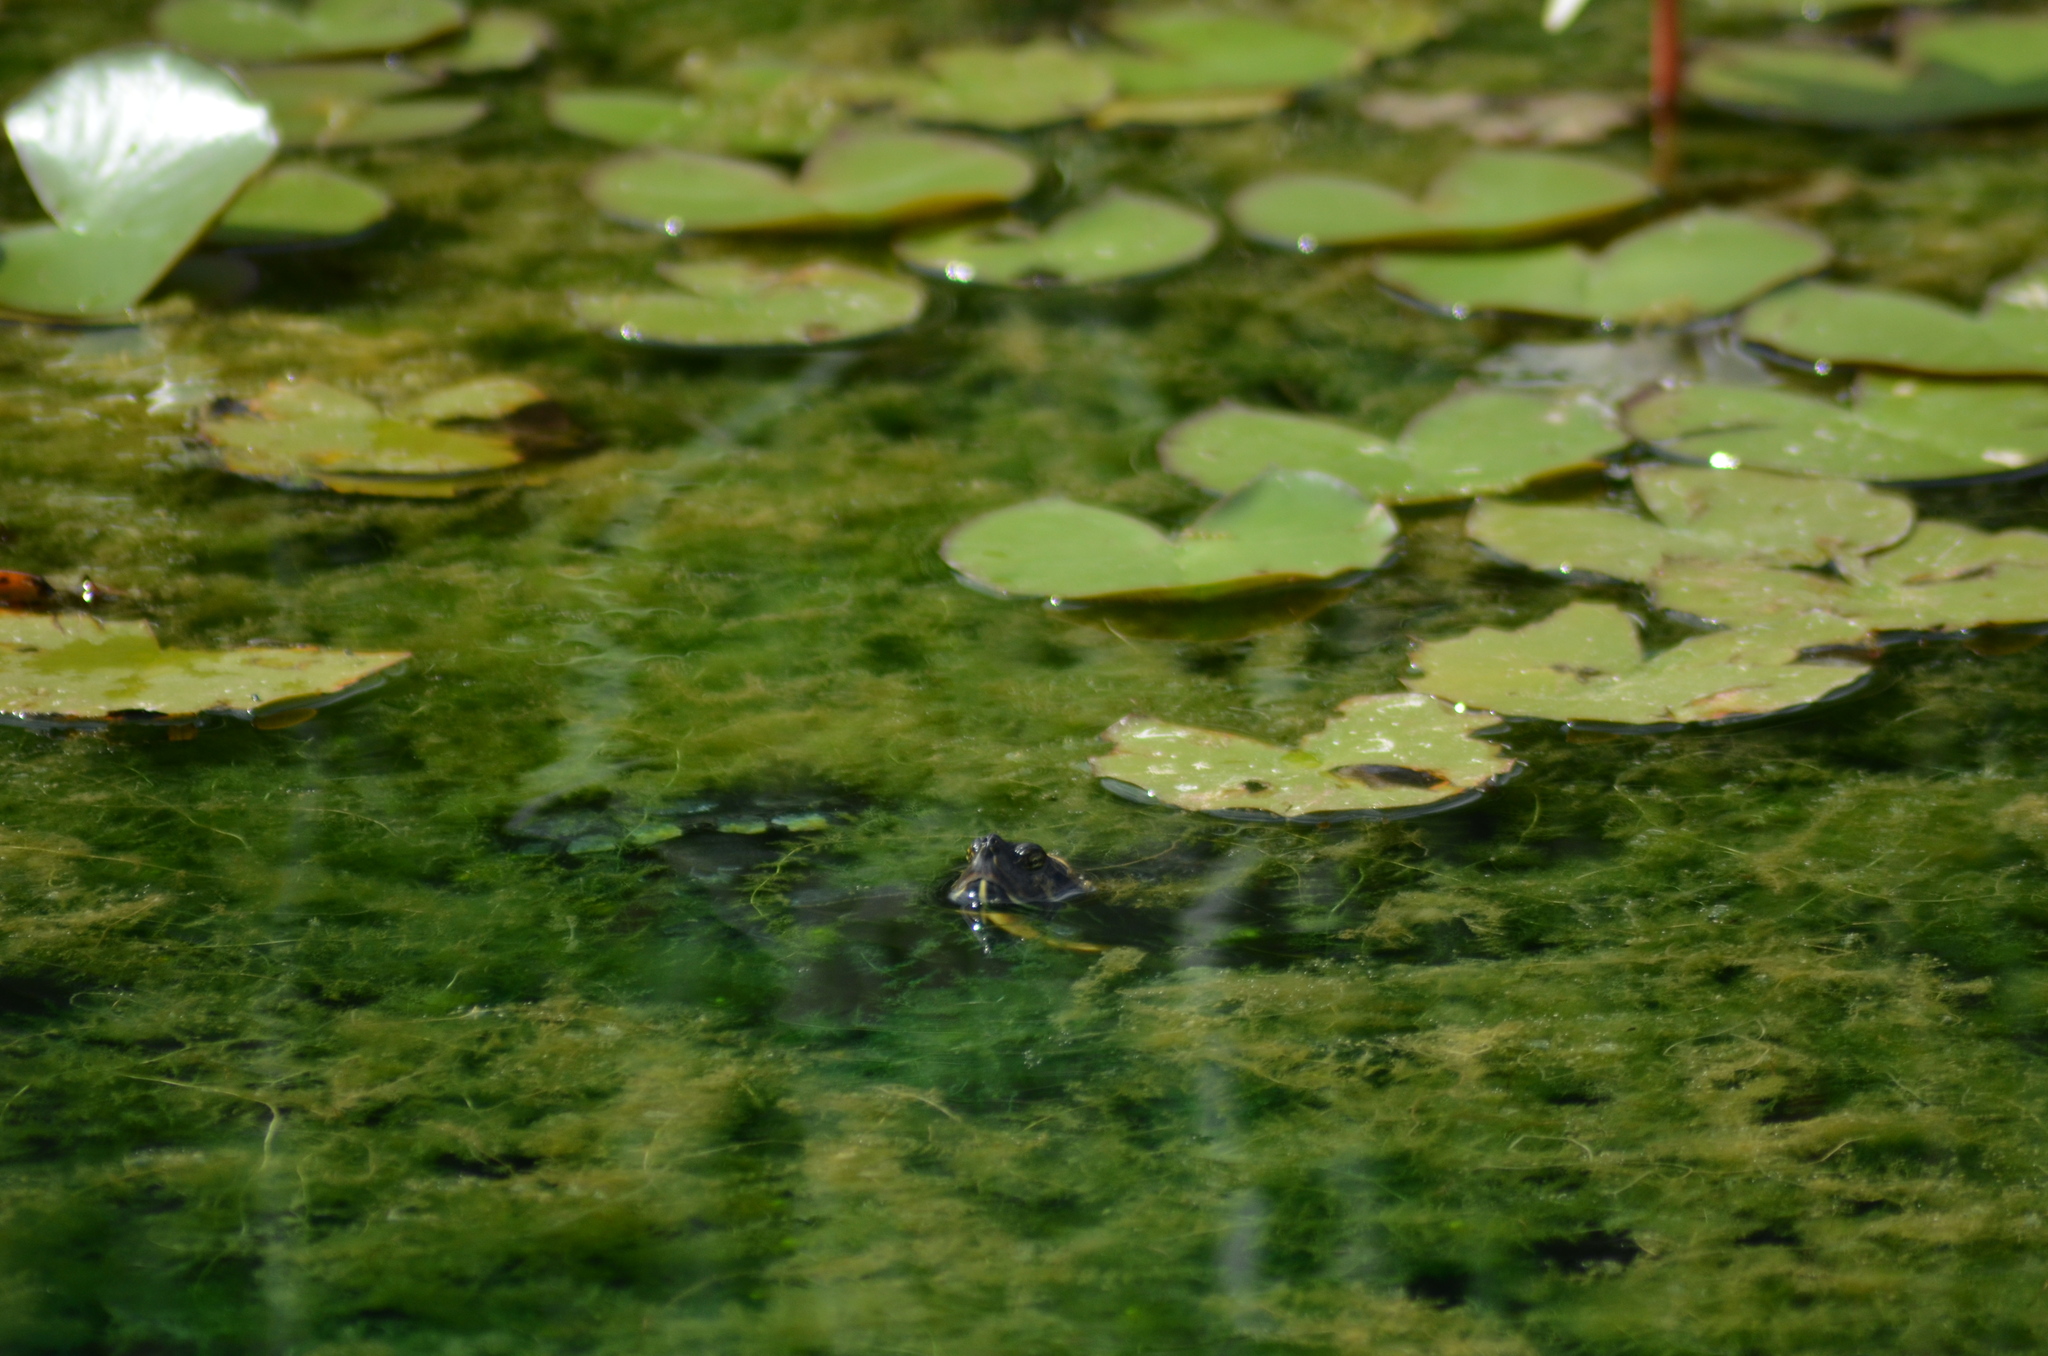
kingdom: Animalia
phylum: Chordata
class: Testudines
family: Emydidae
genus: Trachemys
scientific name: Trachemys scripta
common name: Slider
